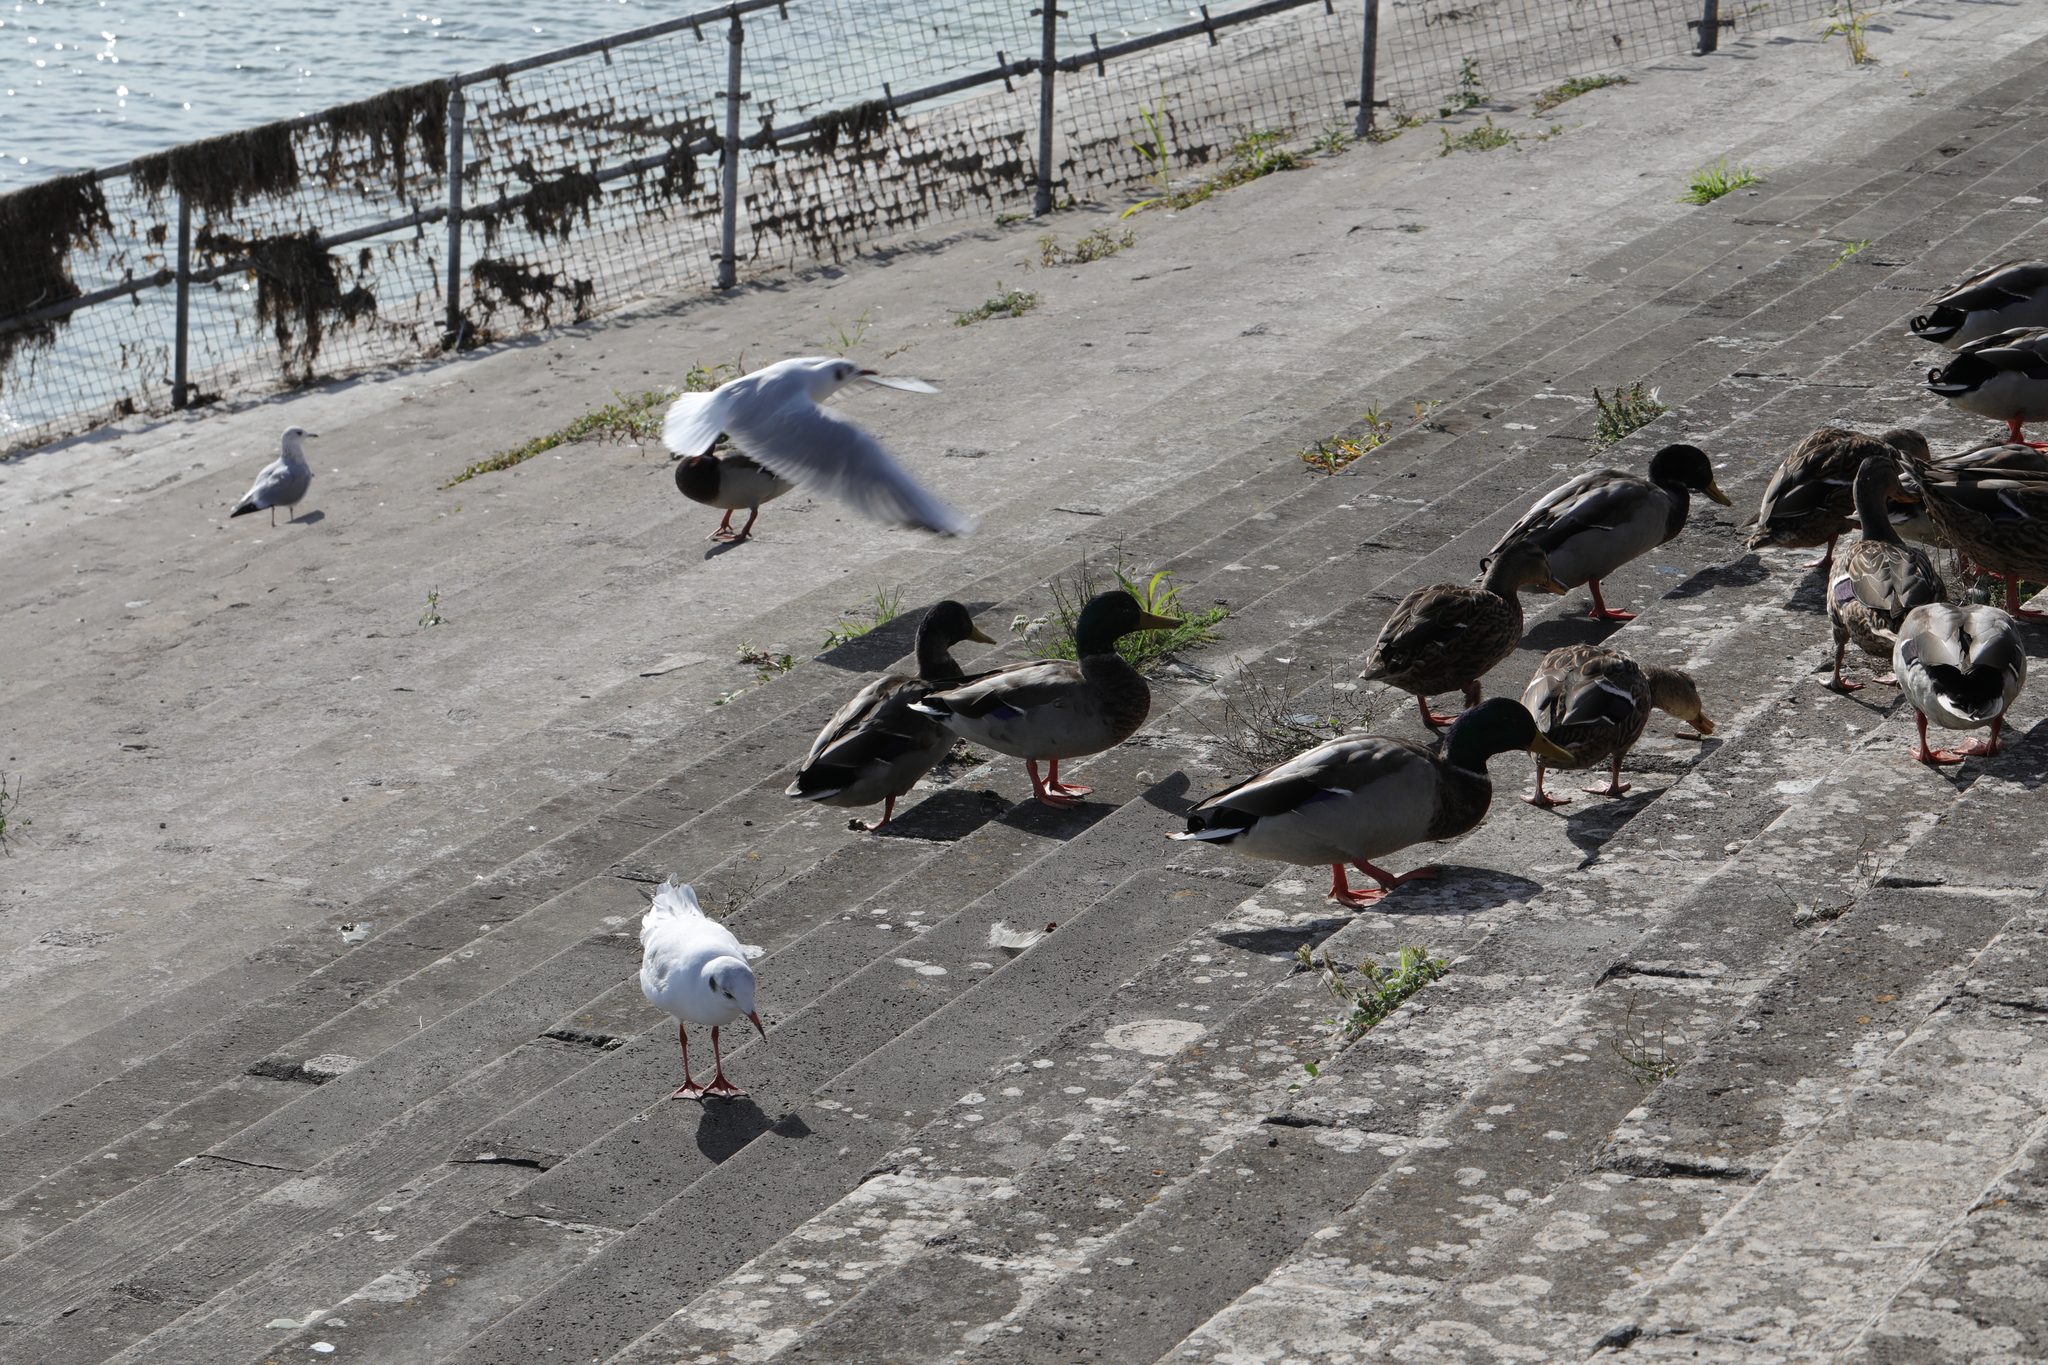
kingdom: Animalia
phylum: Chordata
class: Aves
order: Anseriformes
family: Anatidae
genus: Anas
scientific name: Anas platyrhynchos
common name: Mallard
